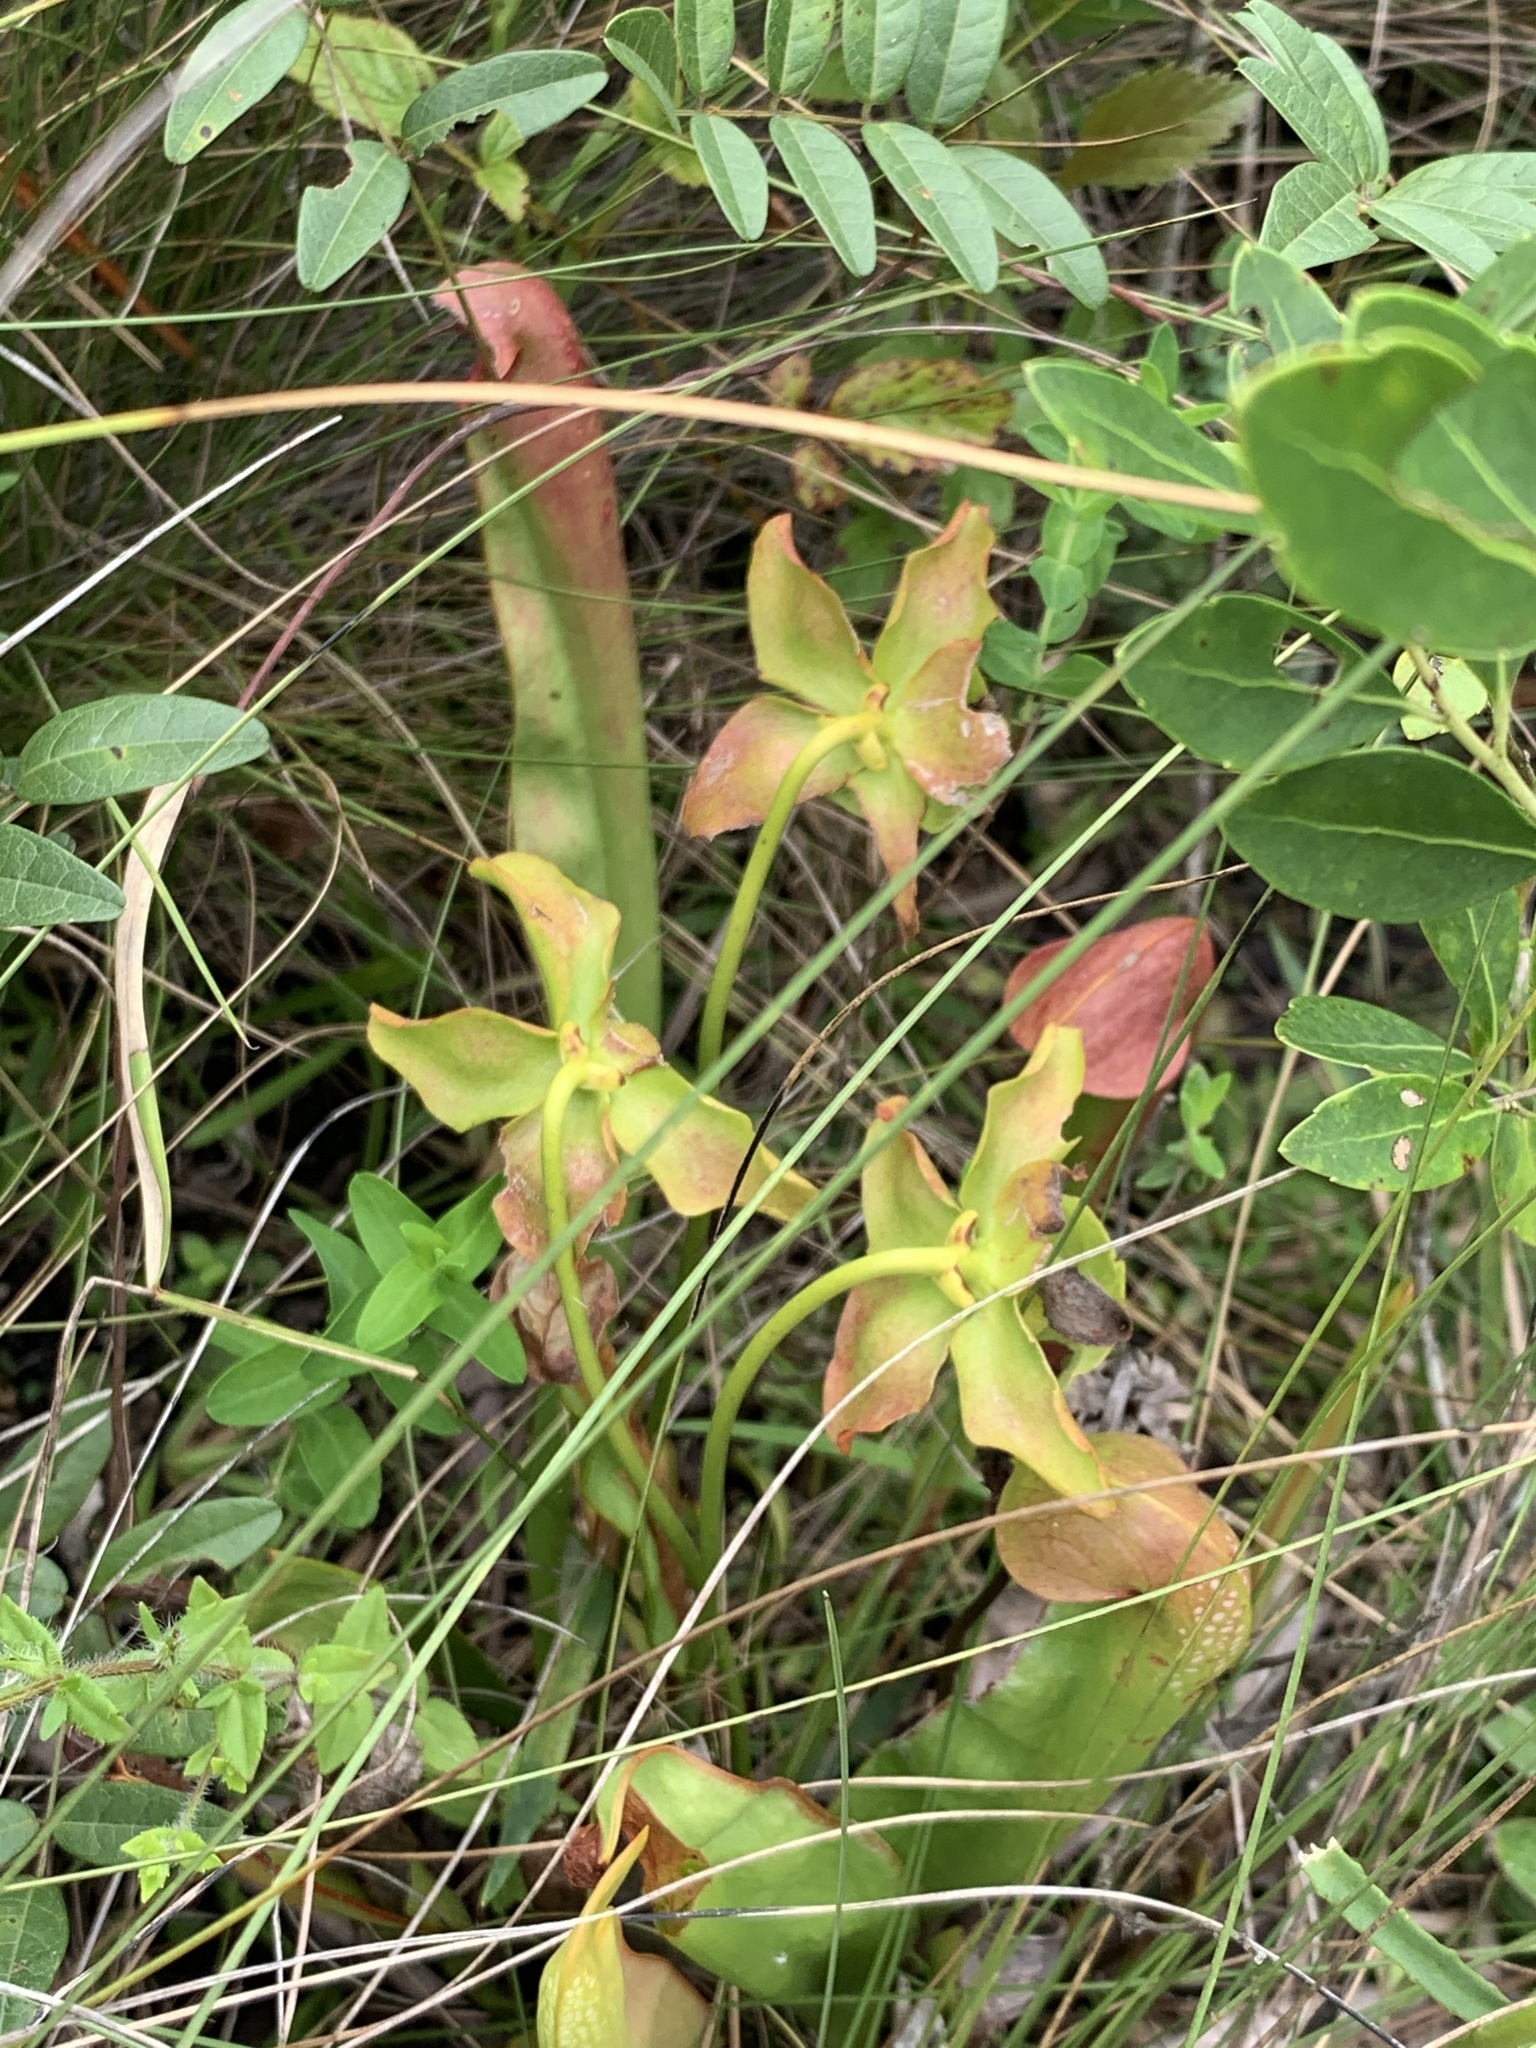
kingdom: Plantae
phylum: Tracheophyta
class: Magnoliopsida
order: Ericales
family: Sarraceniaceae
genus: Sarracenia
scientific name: Sarracenia minor
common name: Rainhat-trumpet
